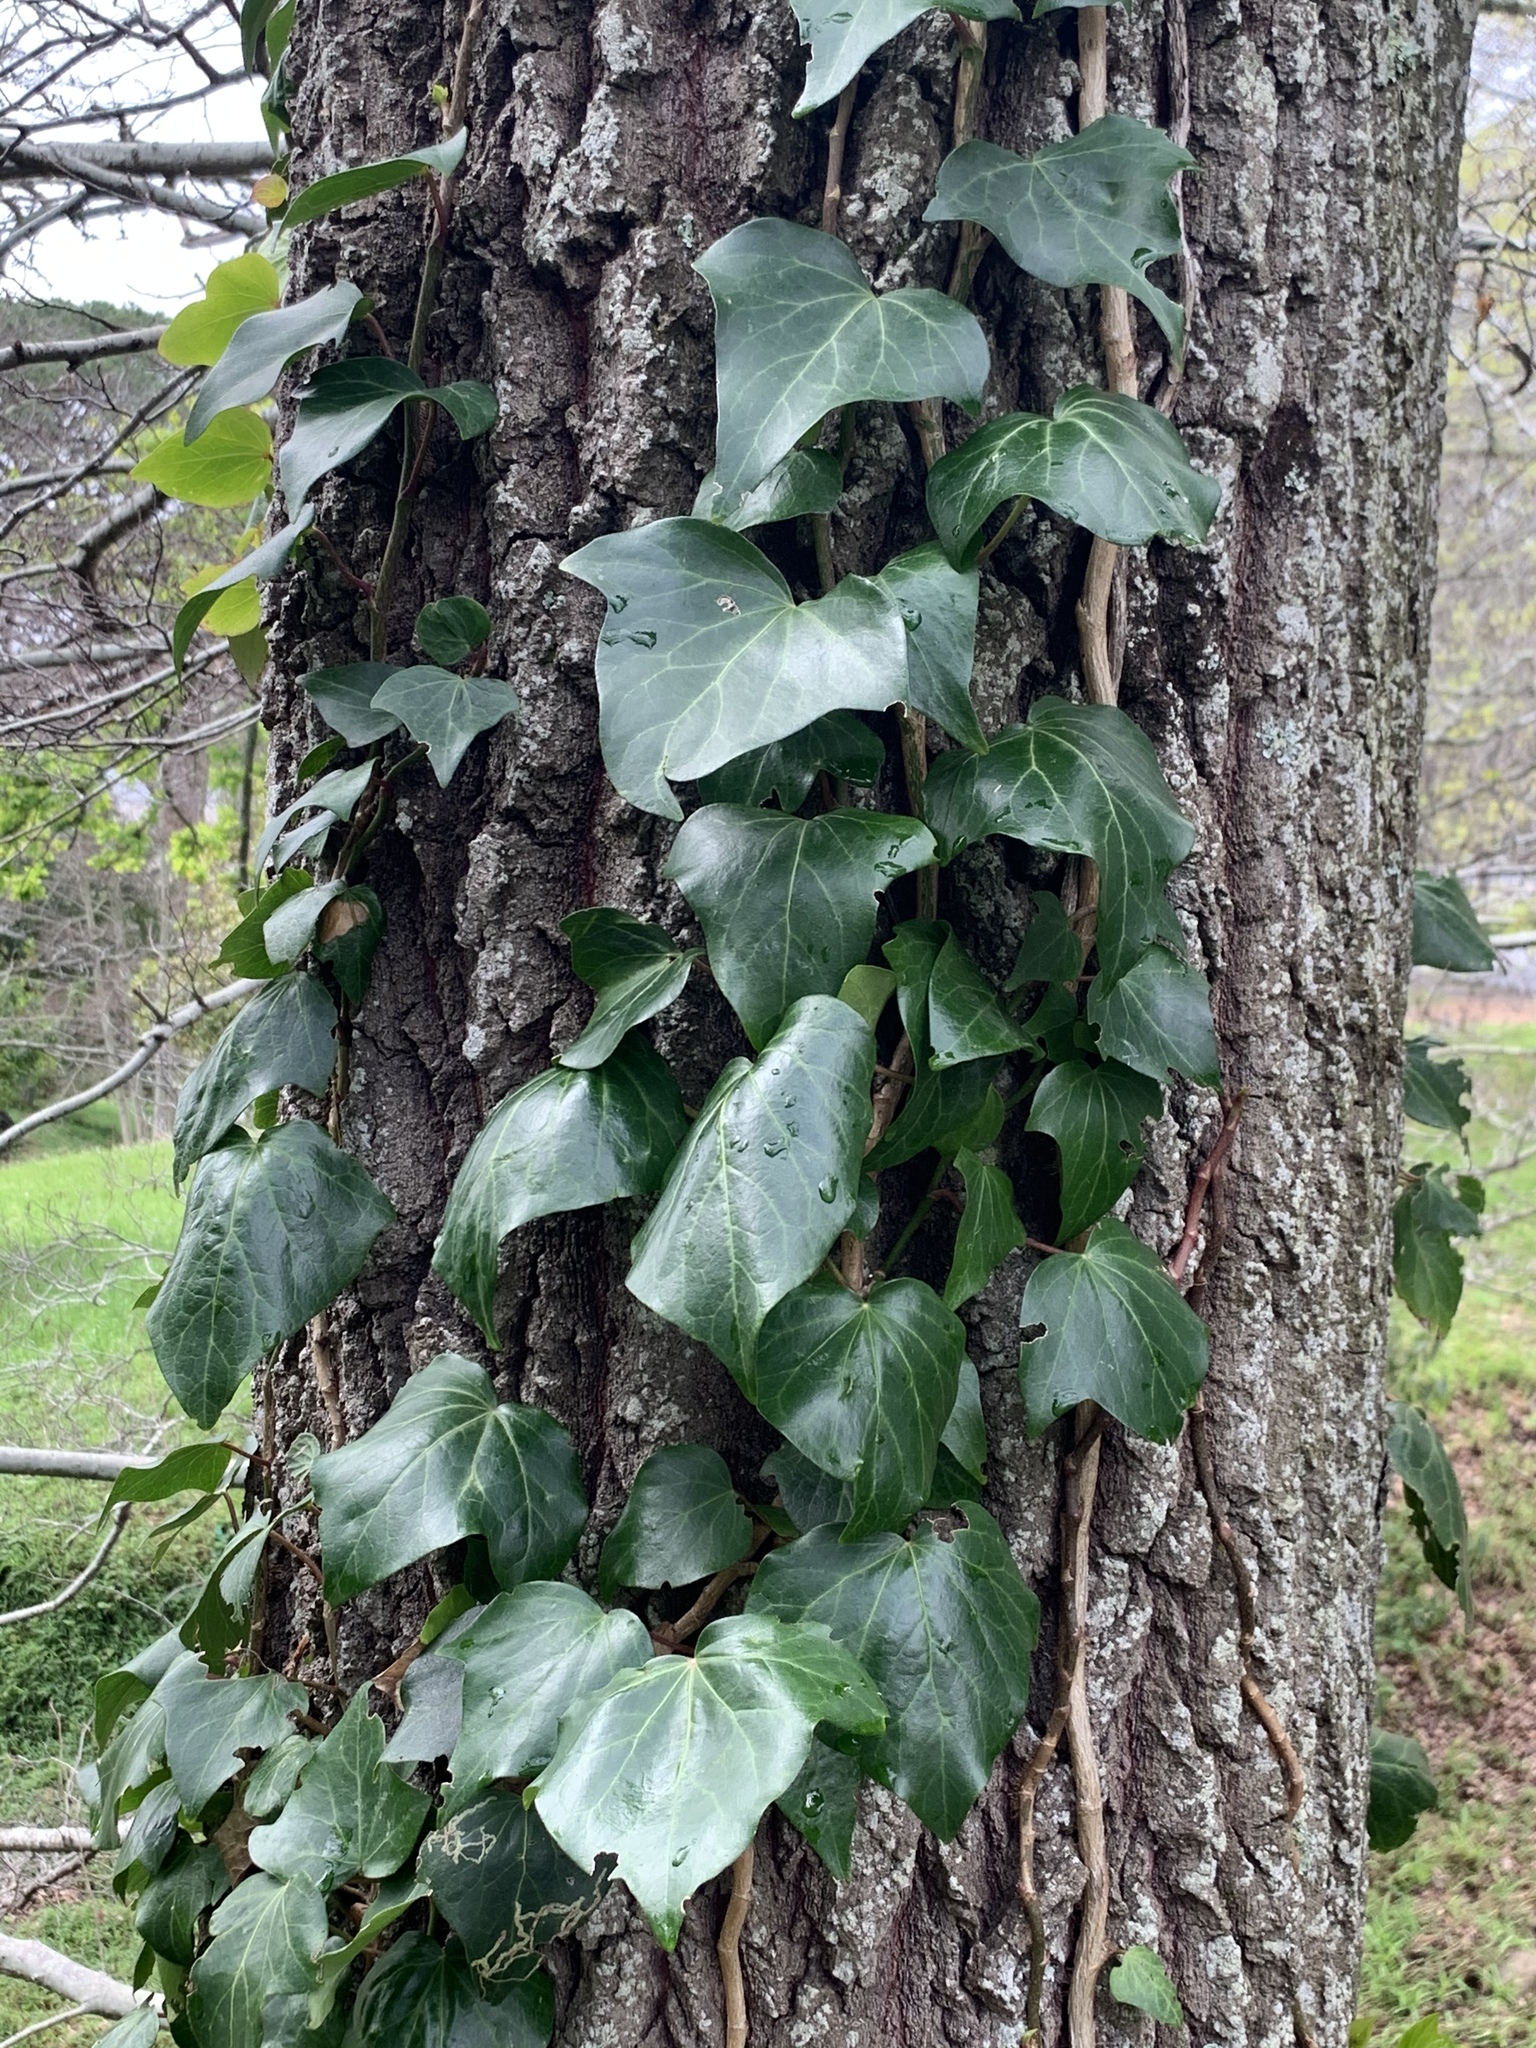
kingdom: Plantae
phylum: Tracheophyta
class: Magnoliopsida
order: Apiales
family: Araliaceae
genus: Hedera
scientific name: Hedera canariensis
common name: Madeira ivy
